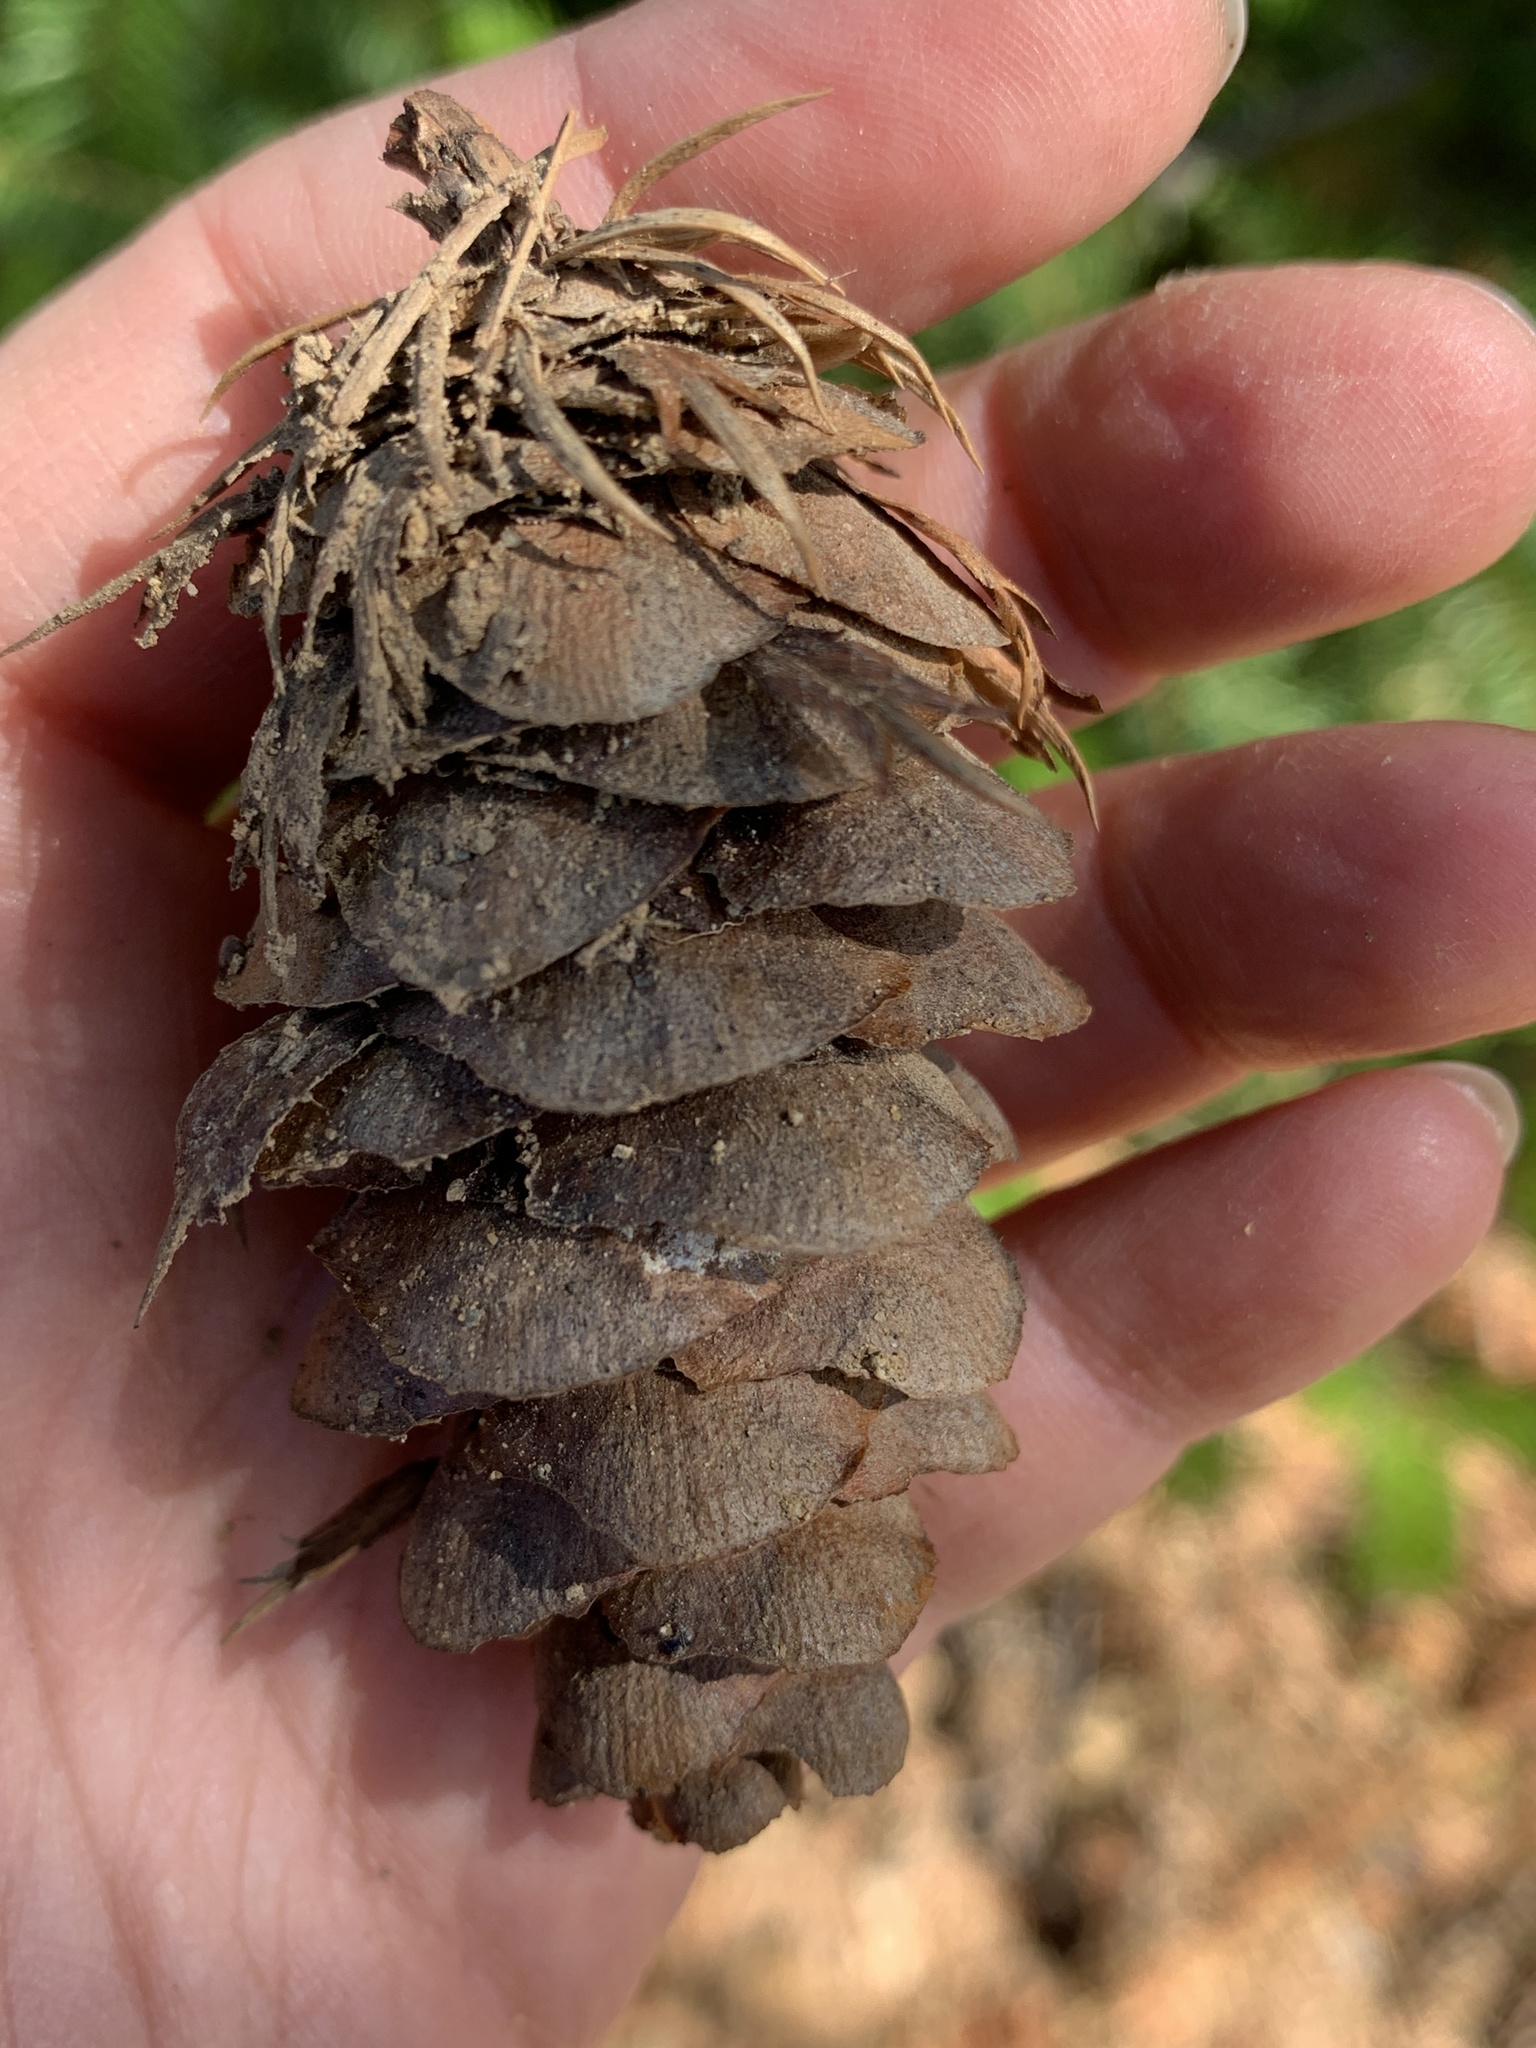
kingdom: Plantae
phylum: Tracheophyta
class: Pinopsida
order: Pinales
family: Pinaceae
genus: Pseudotsuga
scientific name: Pseudotsuga menziesii
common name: Douglas fir
